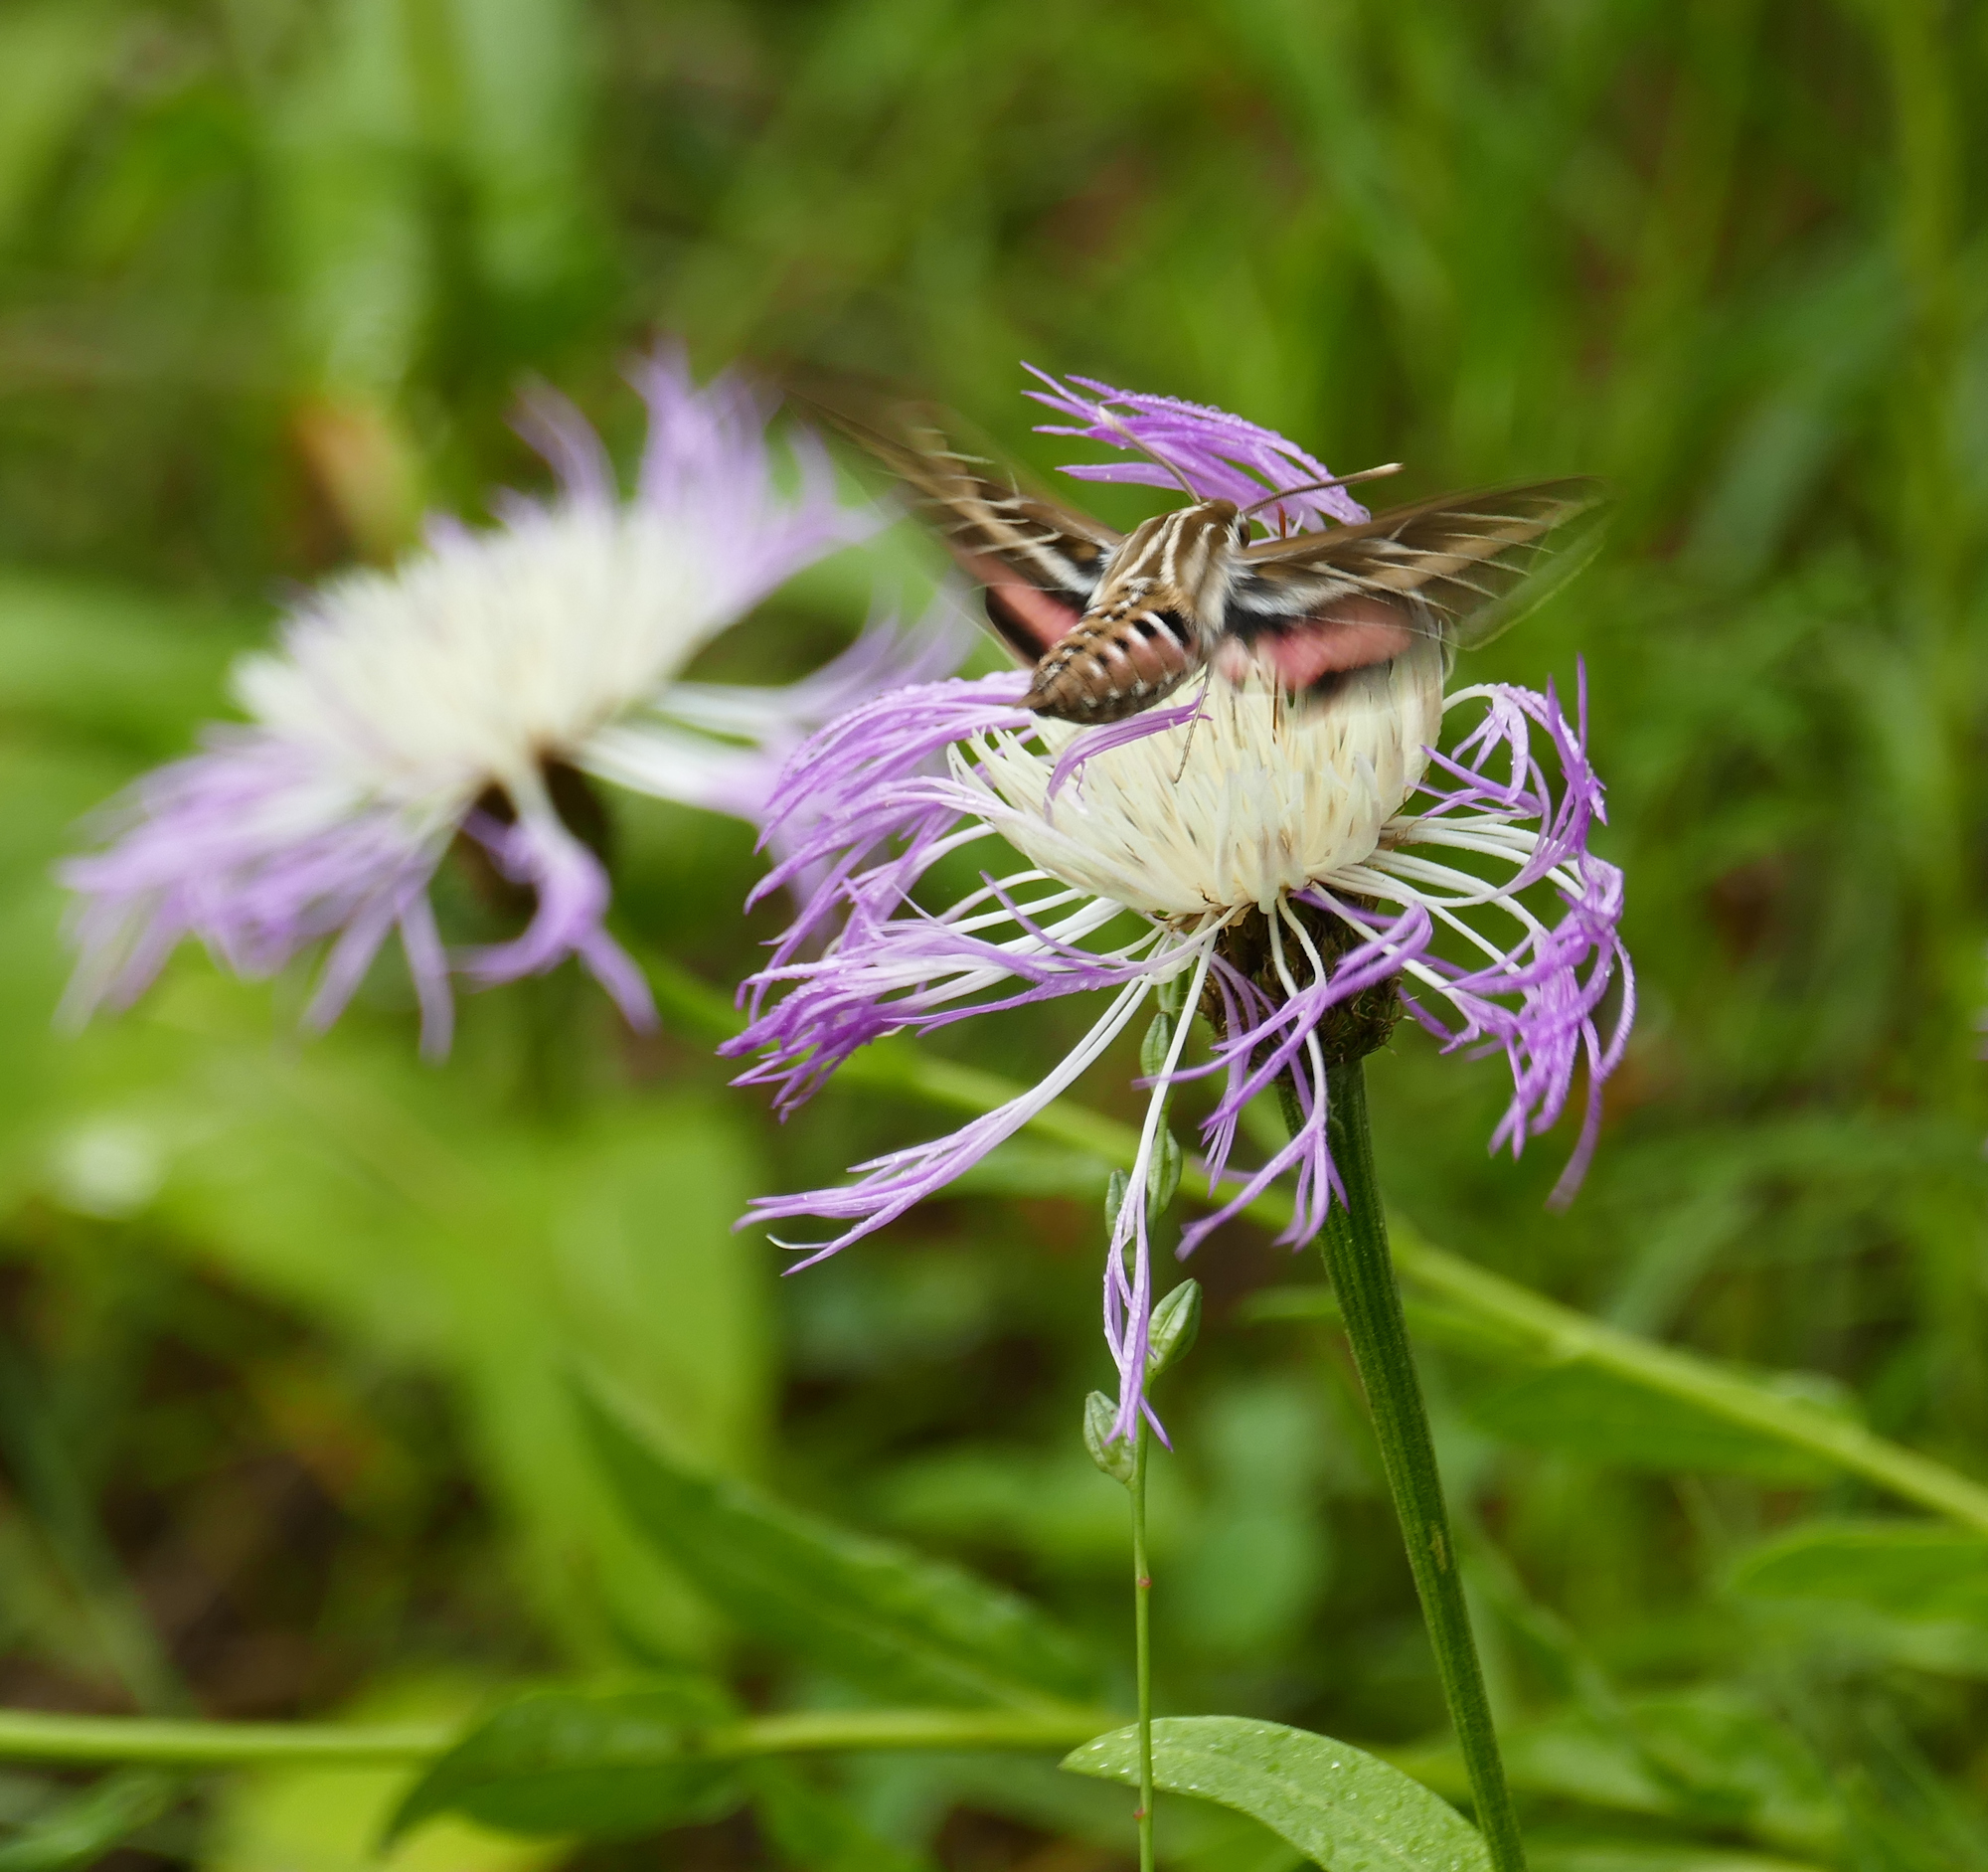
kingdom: Animalia
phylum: Arthropoda
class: Insecta
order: Lepidoptera
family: Sphingidae
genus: Hyles
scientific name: Hyles lineata
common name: White-lined sphinx
